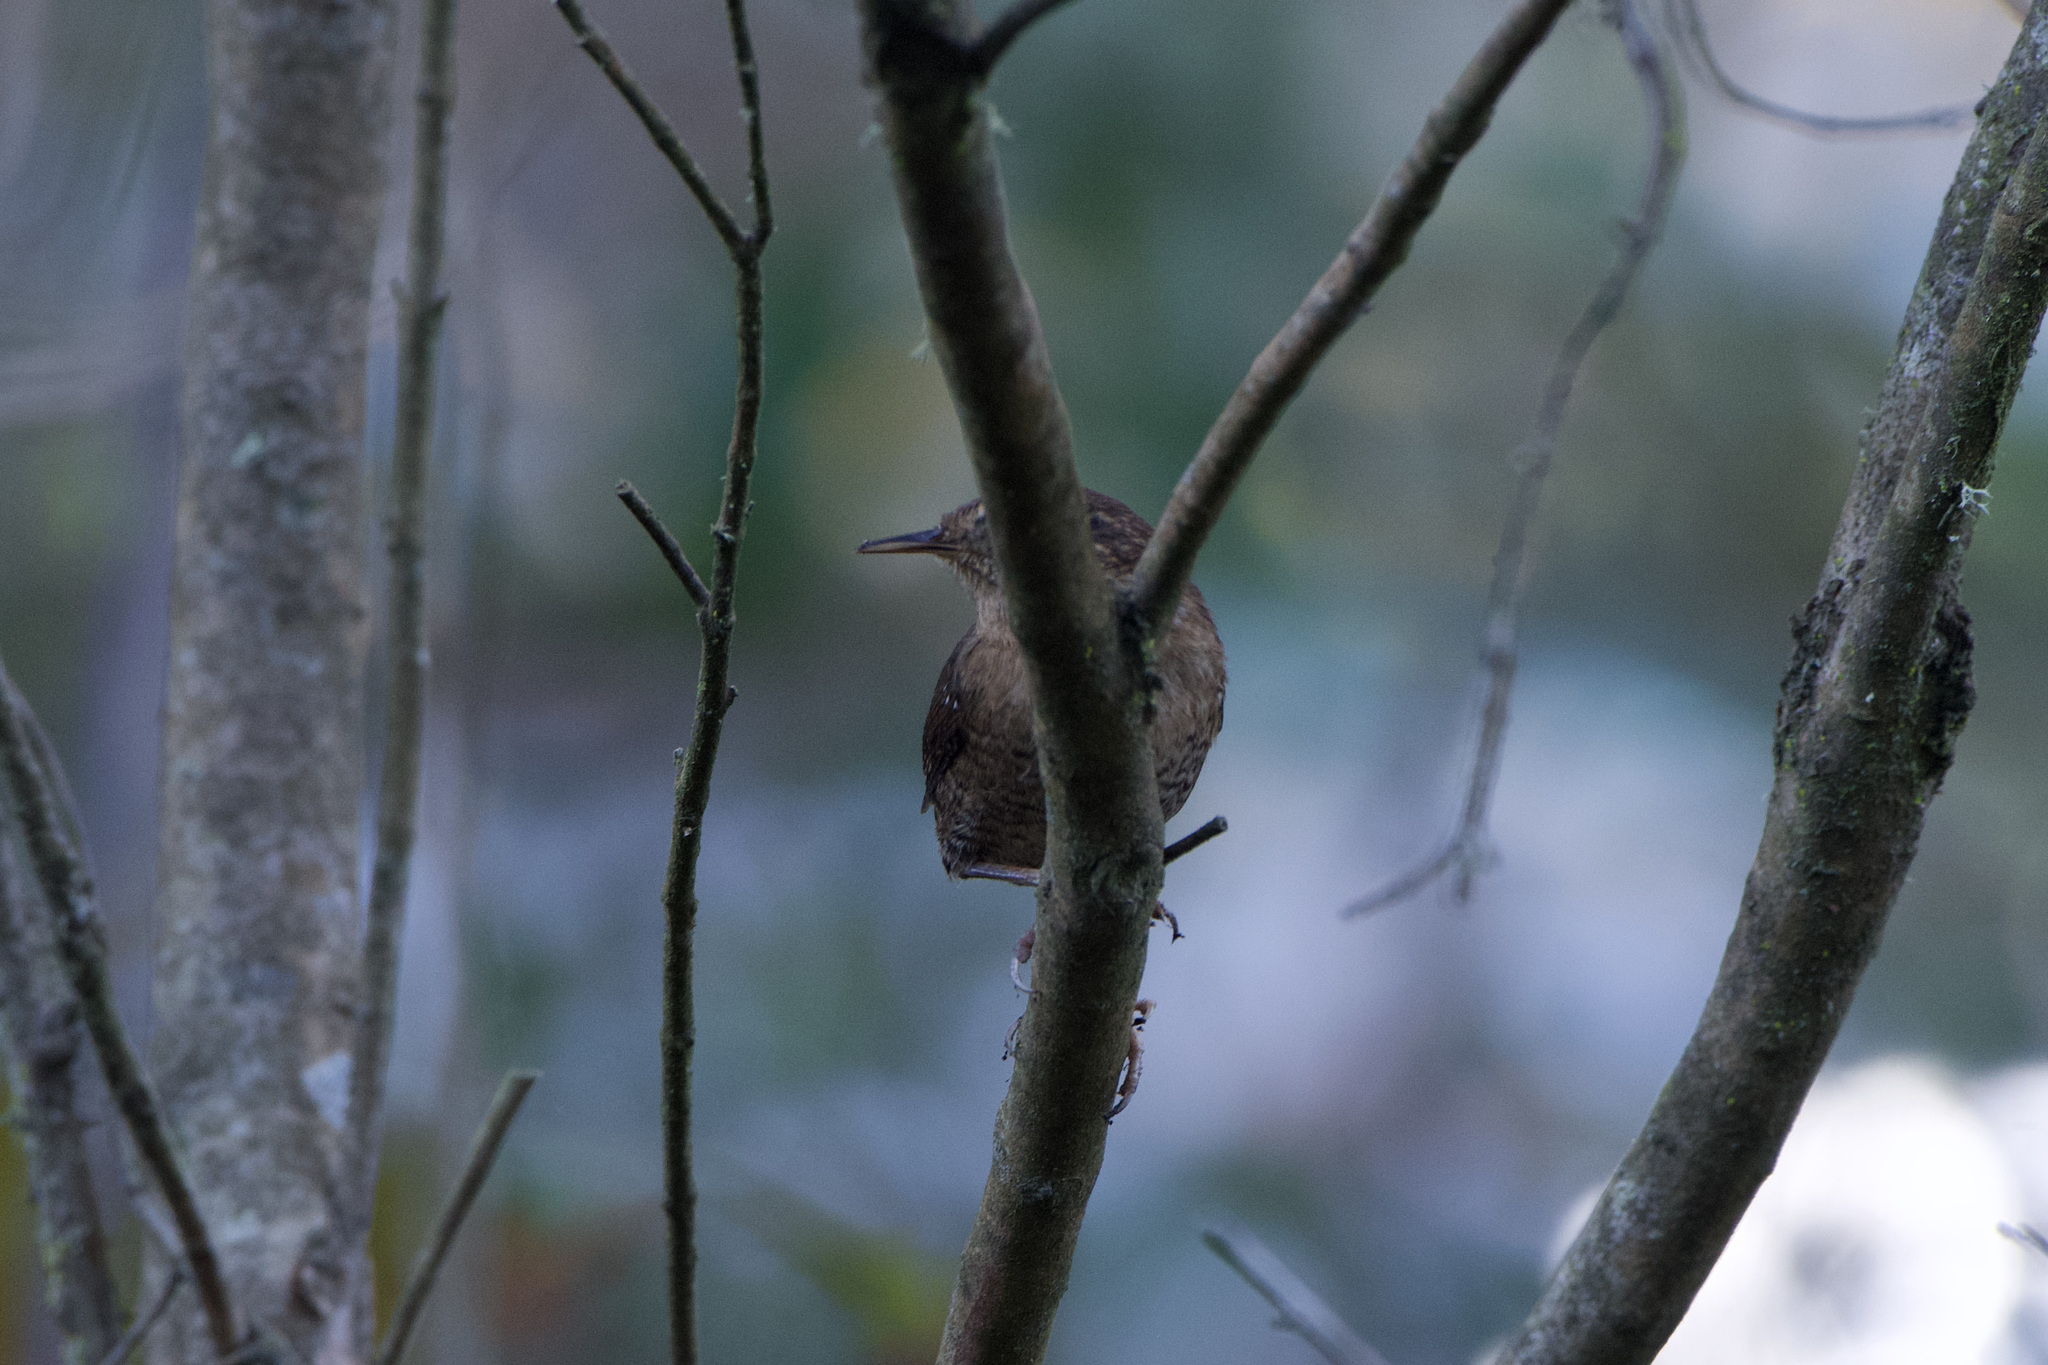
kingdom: Animalia
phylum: Chordata
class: Aves
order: Passeriformes
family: Troglodytidae
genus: Troglodytes
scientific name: Troglodytes pacificus
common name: Pacific wren
